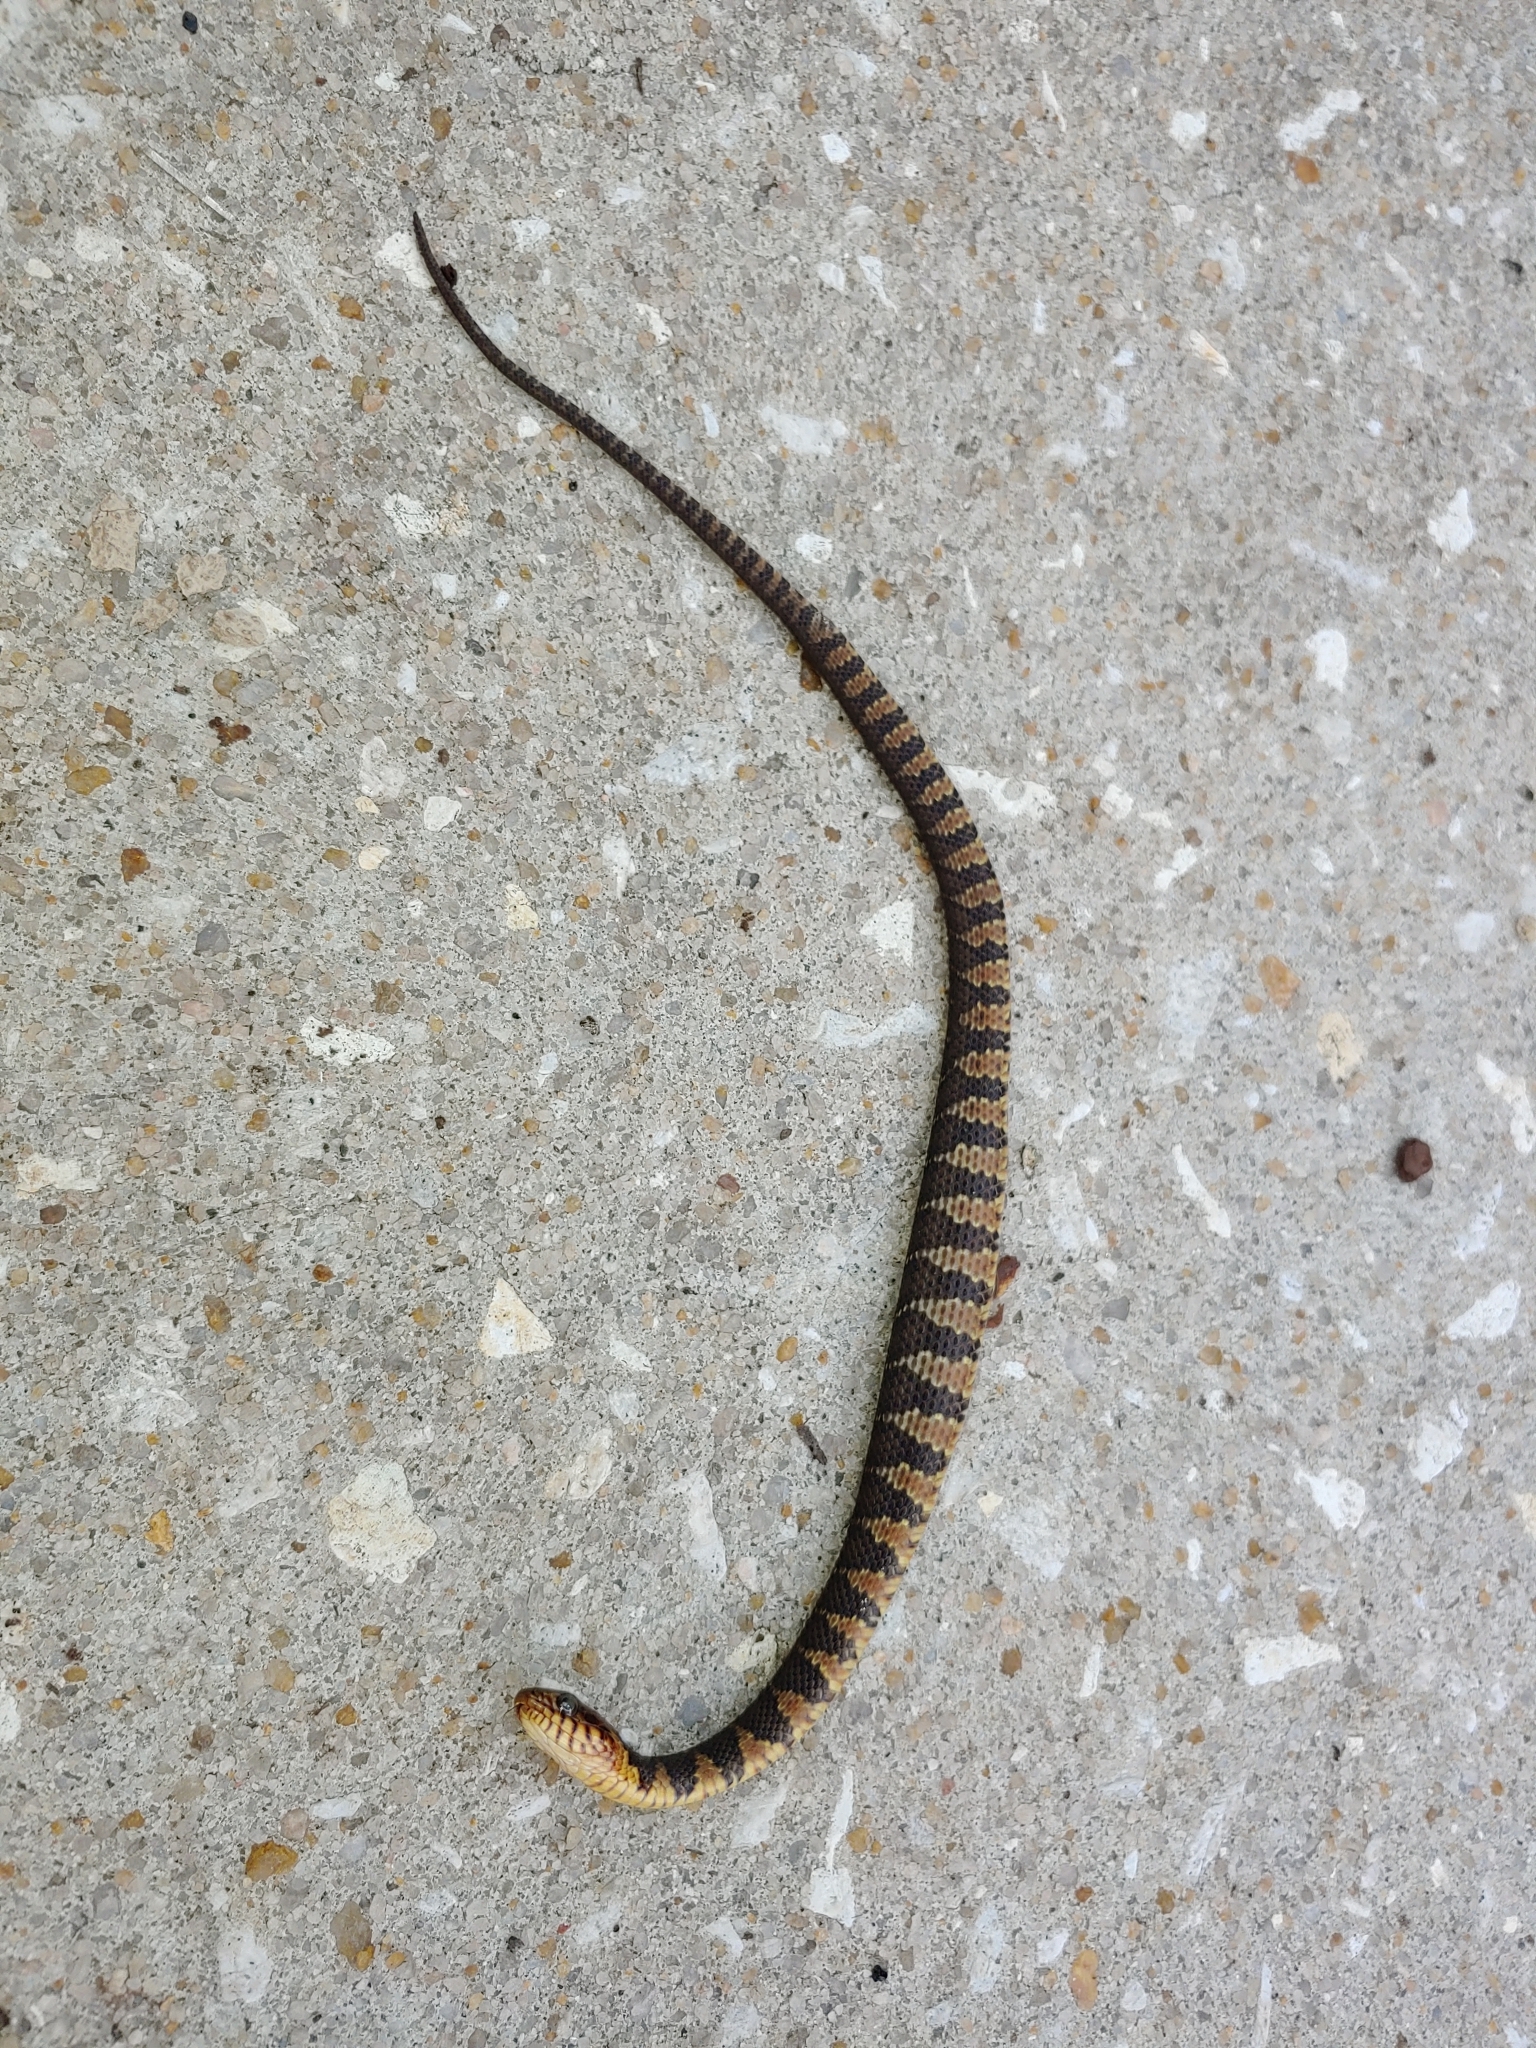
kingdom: Animalia
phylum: Chordata
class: Squamata
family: Colubridae
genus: Nerodia
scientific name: Nerodia fasciata
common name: Southern water snake
